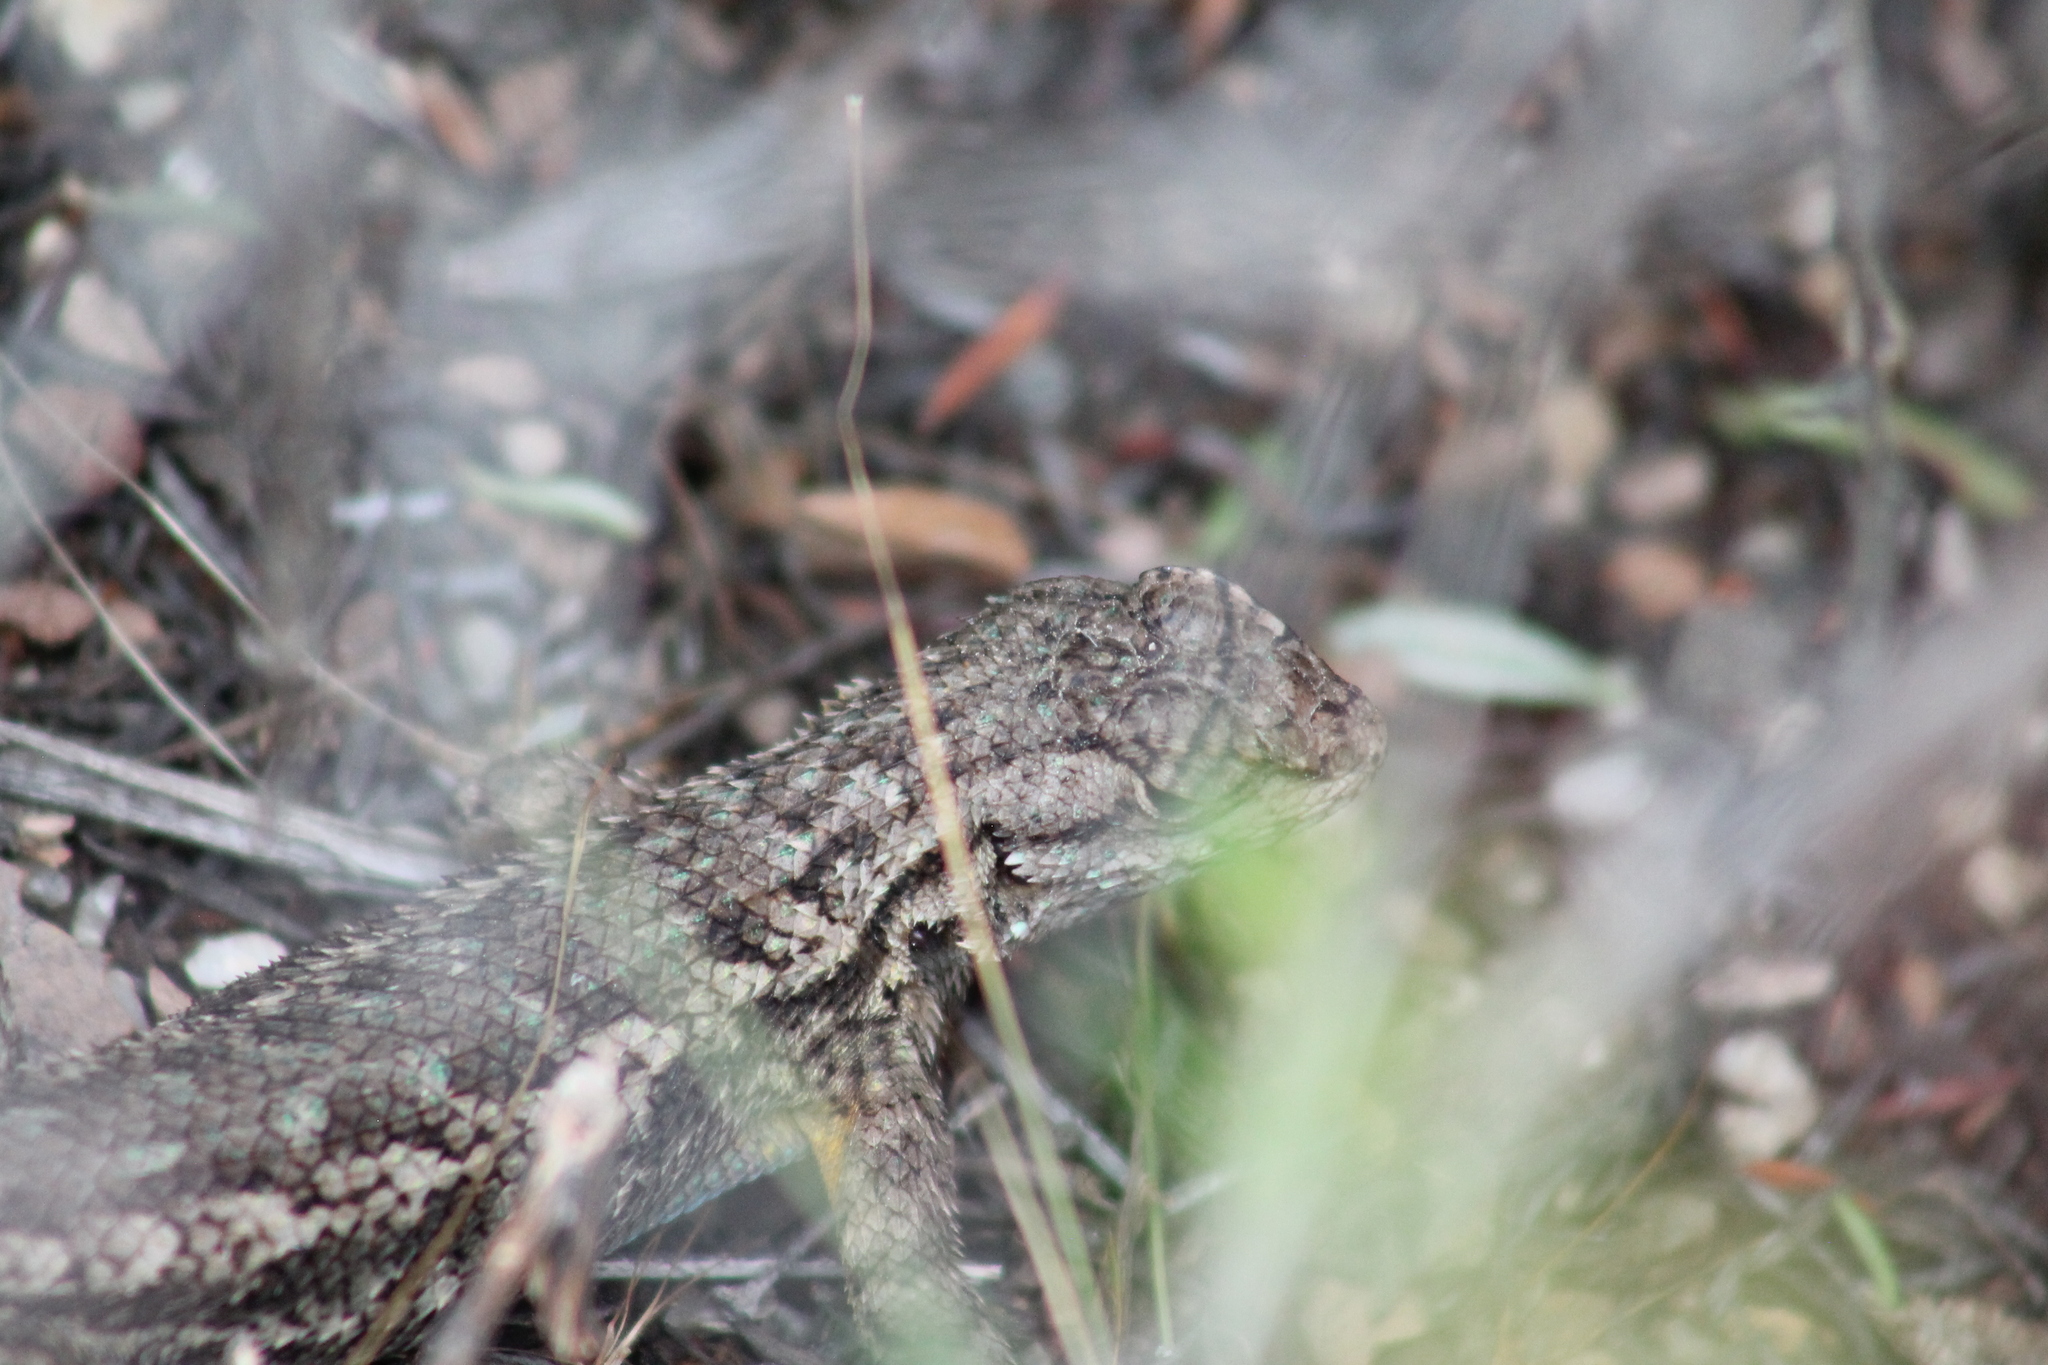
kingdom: Animalia
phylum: Chordata
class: Squamata
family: Phrynosomatidae
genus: Sceloporus
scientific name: Sceloporus occidentalis
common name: Western fence lizard
